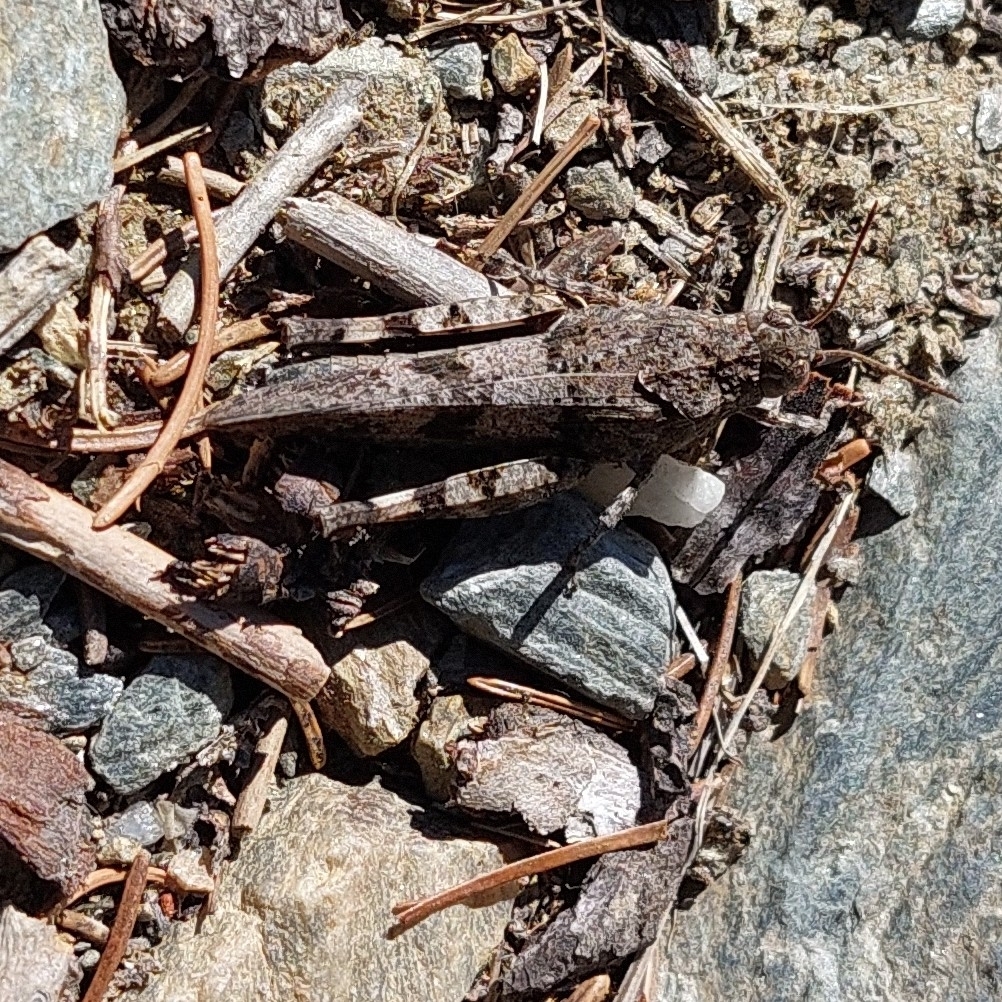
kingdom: Animalia
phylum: Arthropoda
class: Insecta
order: Orthoptera
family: Acrididae
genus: Oedipoda
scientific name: Oedipoda caerulescens
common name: Blue-winged grasshopper
